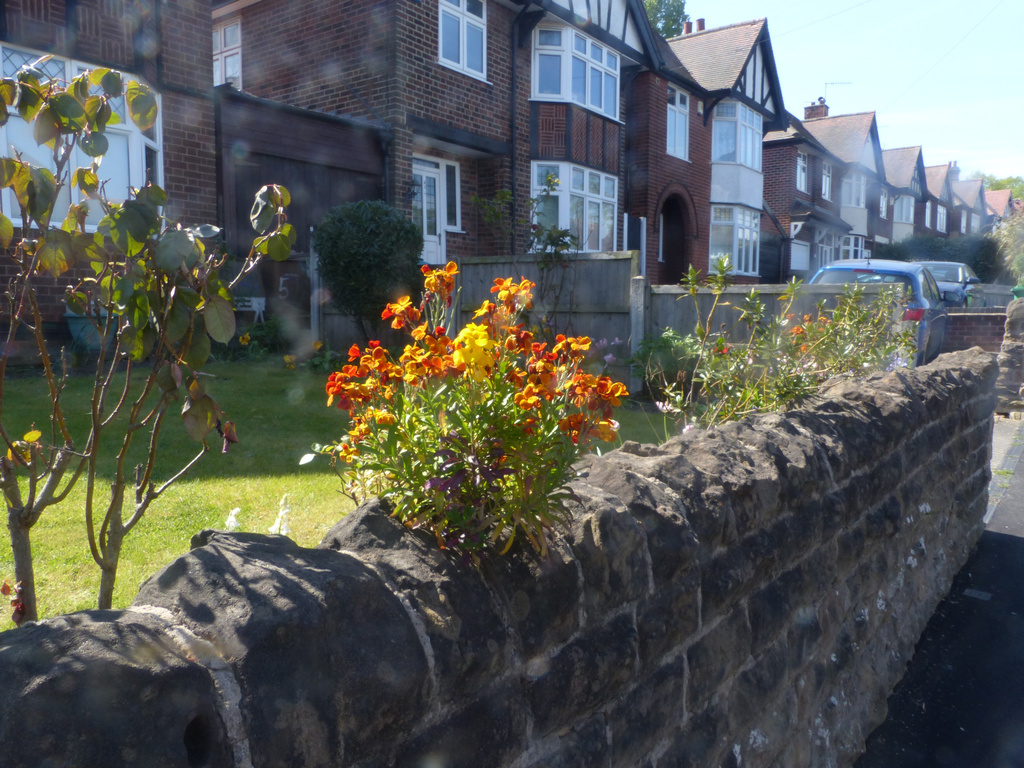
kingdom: Plantae
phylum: Tracheophyta
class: Magnoliopsida
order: Brassicales
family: Brassicaceae
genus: Erysimum
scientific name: Erysimum cheiri
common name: Wallflower
